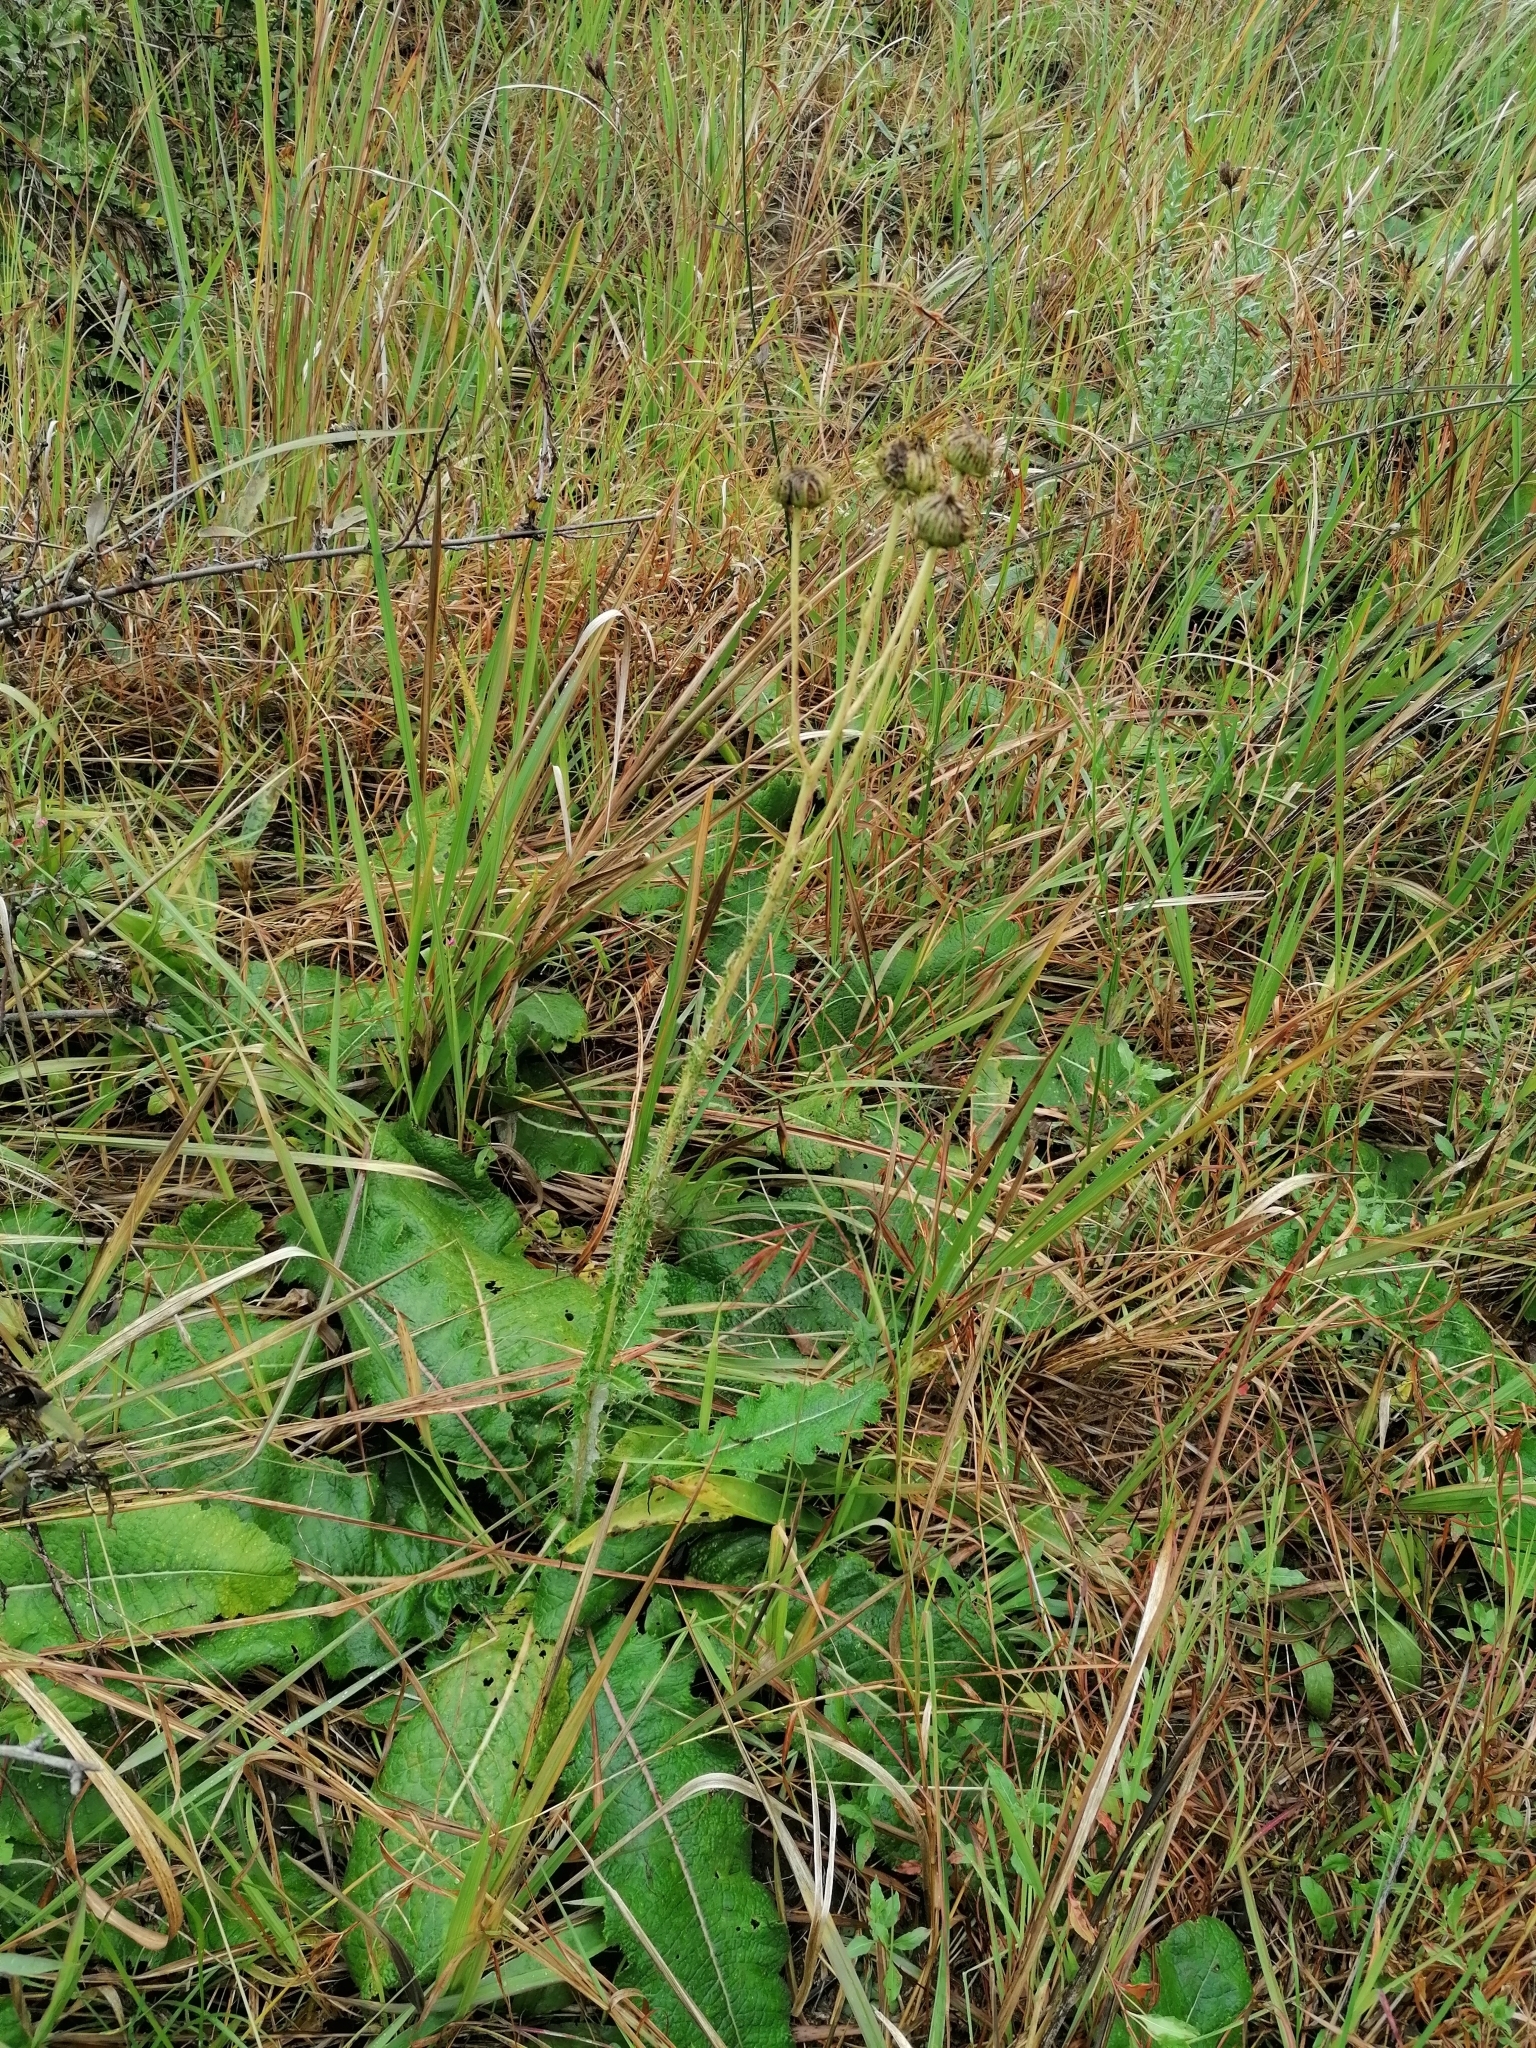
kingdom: Plantae
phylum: Tracheophyta
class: Magnoliopsida
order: Asterales
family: Asteraceae
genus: Berkheya
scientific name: Berkheya radula
